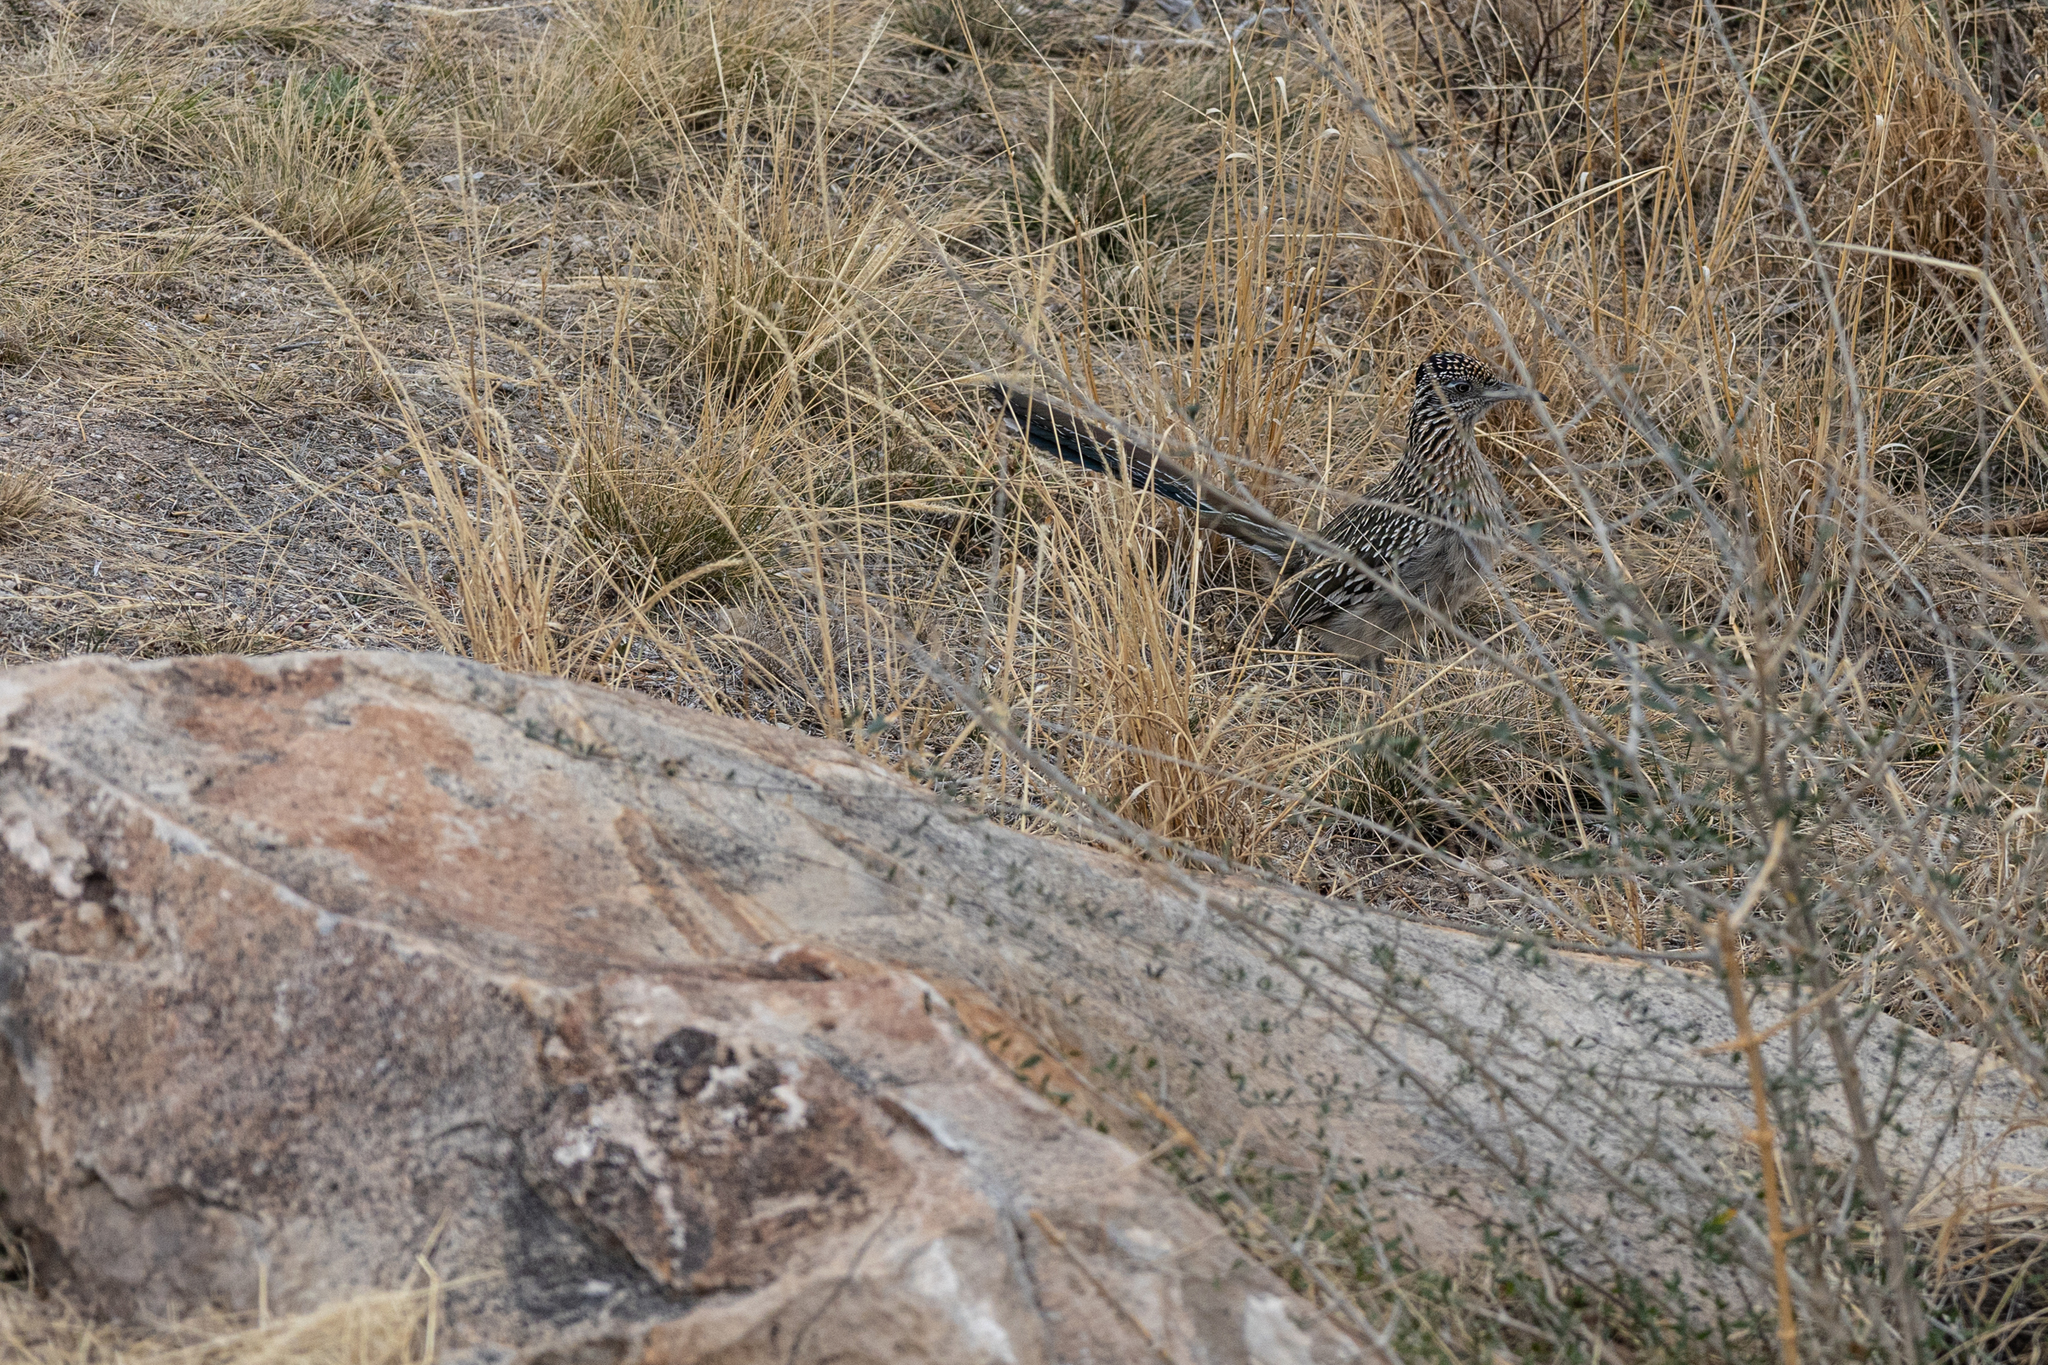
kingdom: Animalia
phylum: Chordata
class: Aves
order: Cuculiformes
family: Cuculidae
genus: Geococcyx
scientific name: Geococcyx californianus
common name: Greater roadrunner
